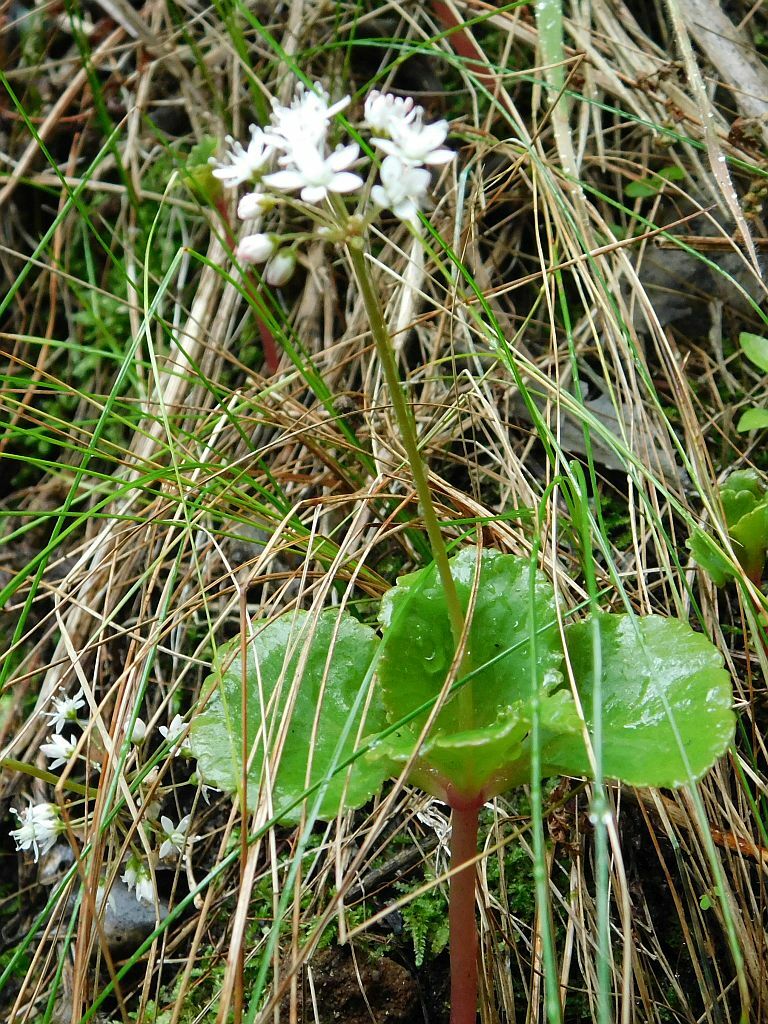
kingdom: Plantae
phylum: Tracheophyta
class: Magnoliopsida
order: Saxifragales
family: Crassulaceae
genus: Crassula
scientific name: Crassula capensis
